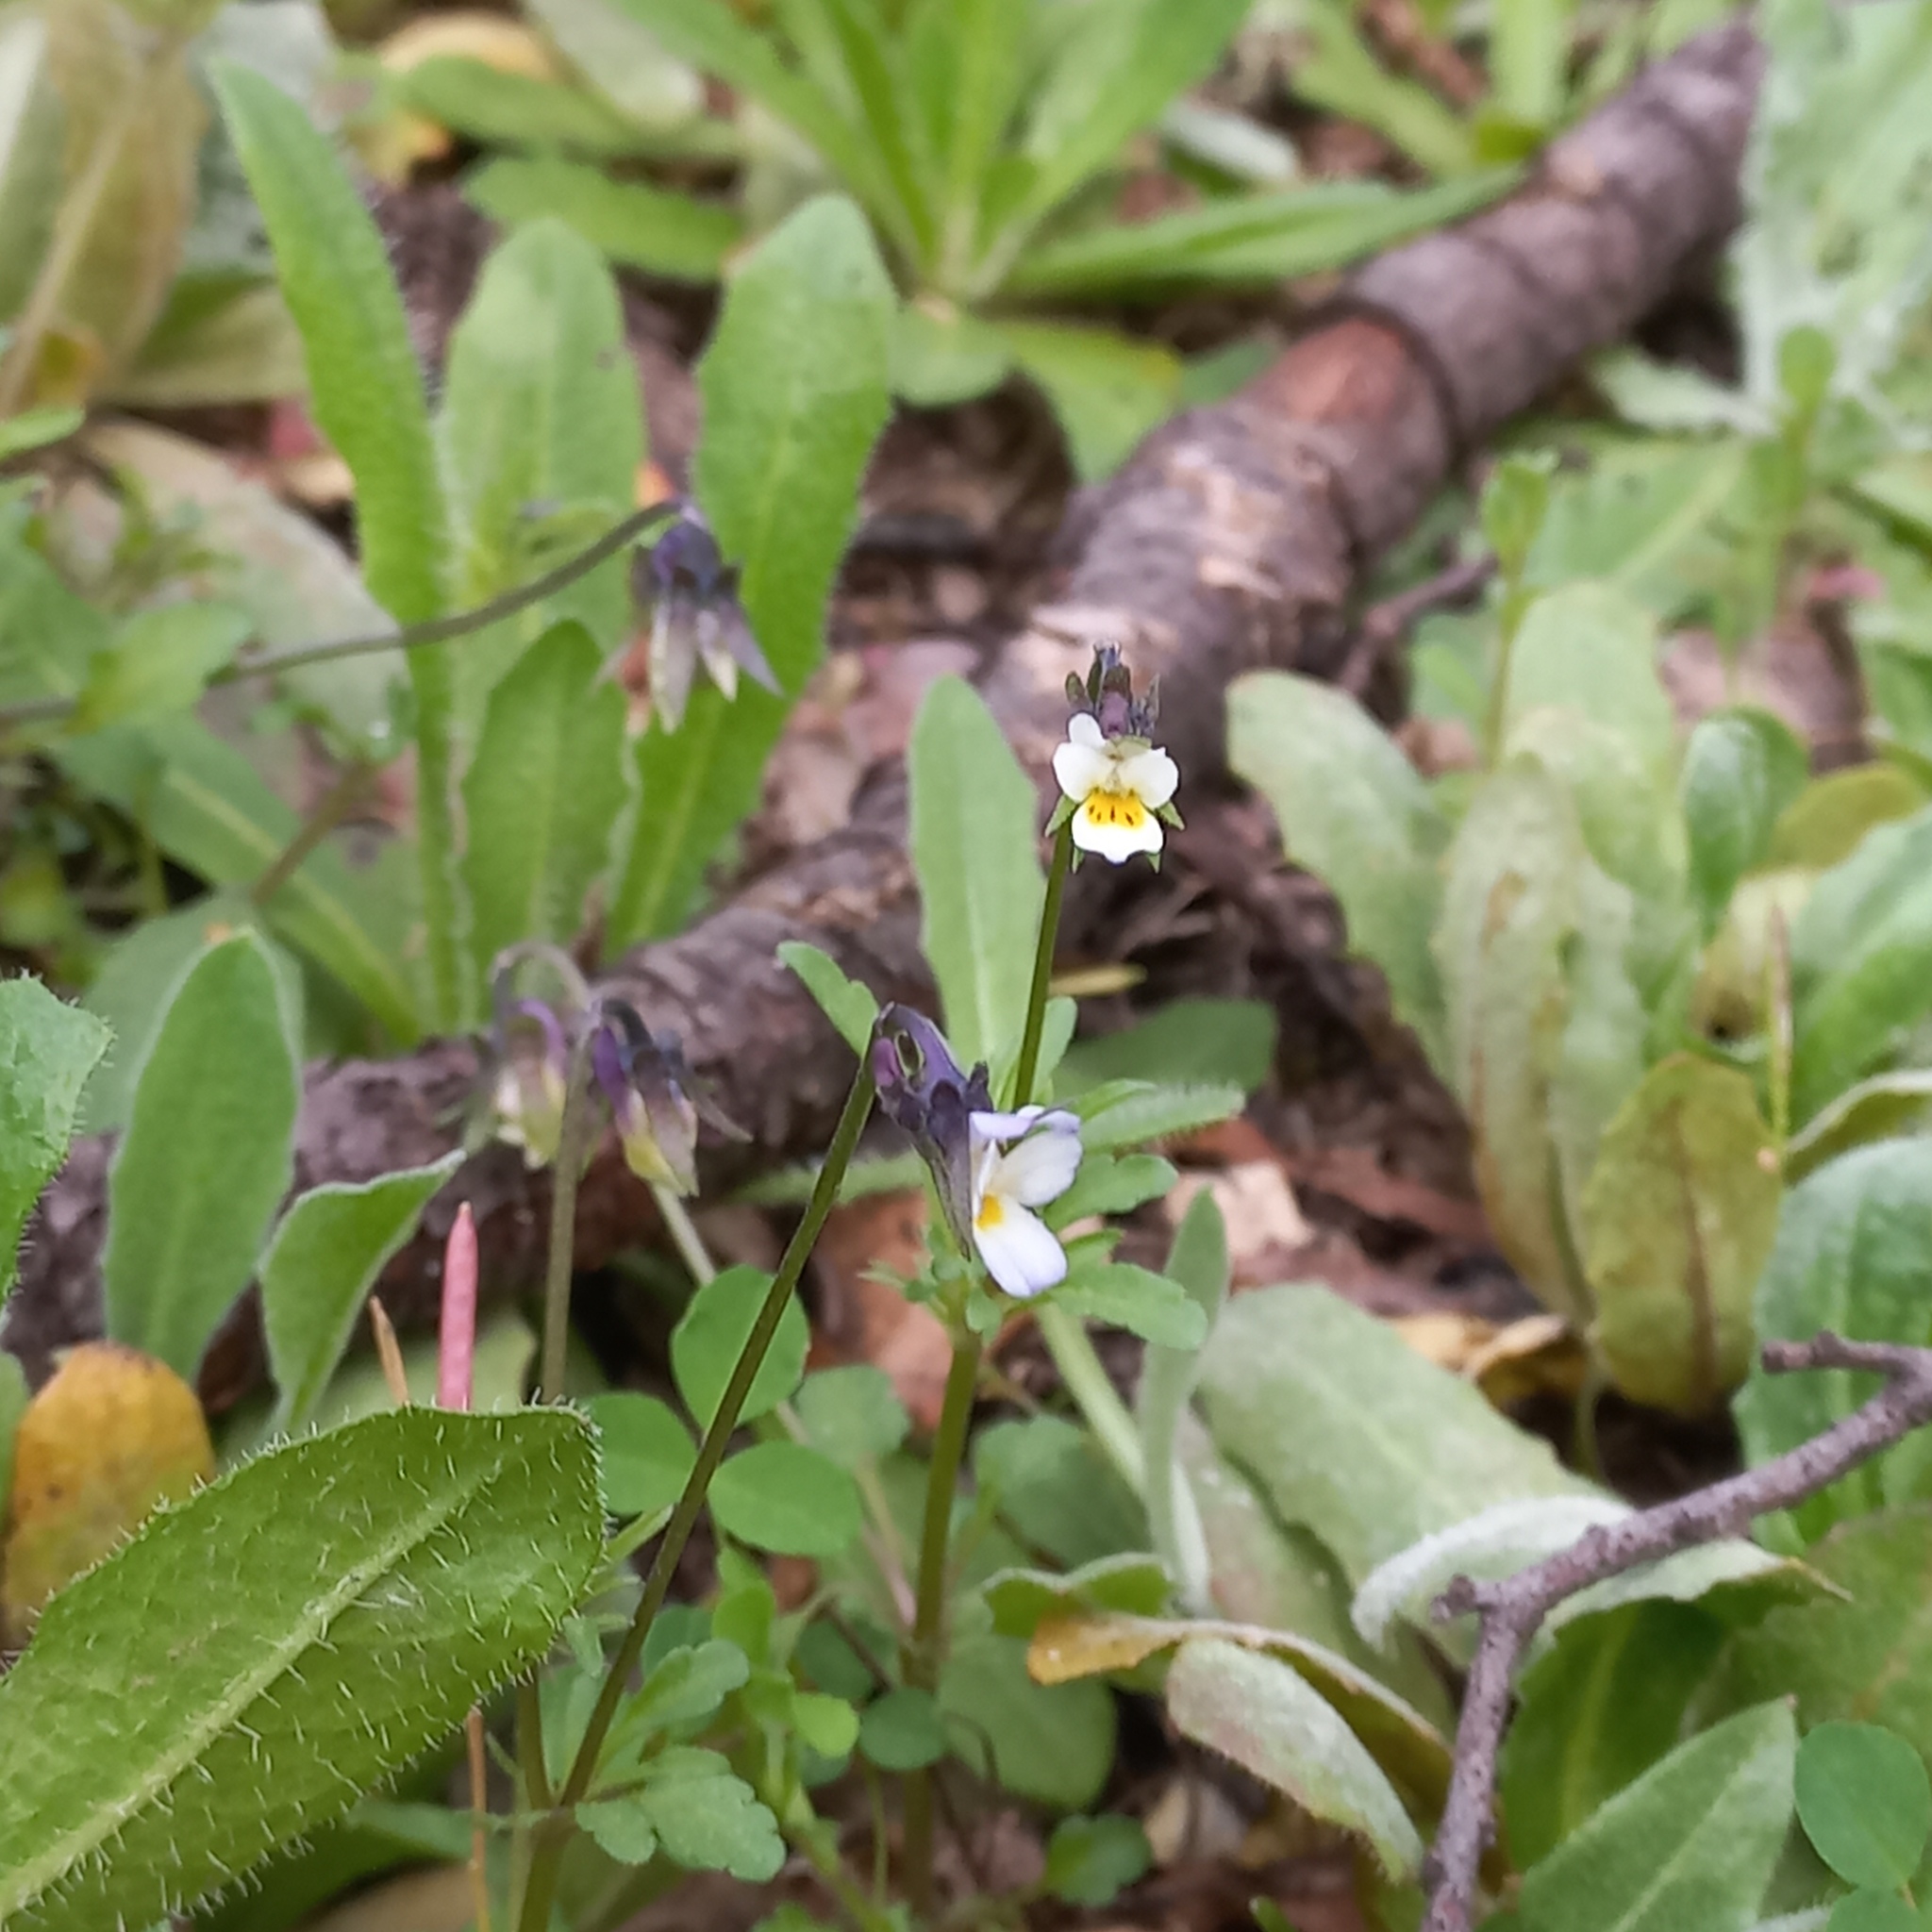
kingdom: Plantae
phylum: Tracheophyta
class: Magnoliopsida
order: Malpighiales
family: Violaceae
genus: Viola
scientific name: Viola kitaibeliana
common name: Dwarf pansy
